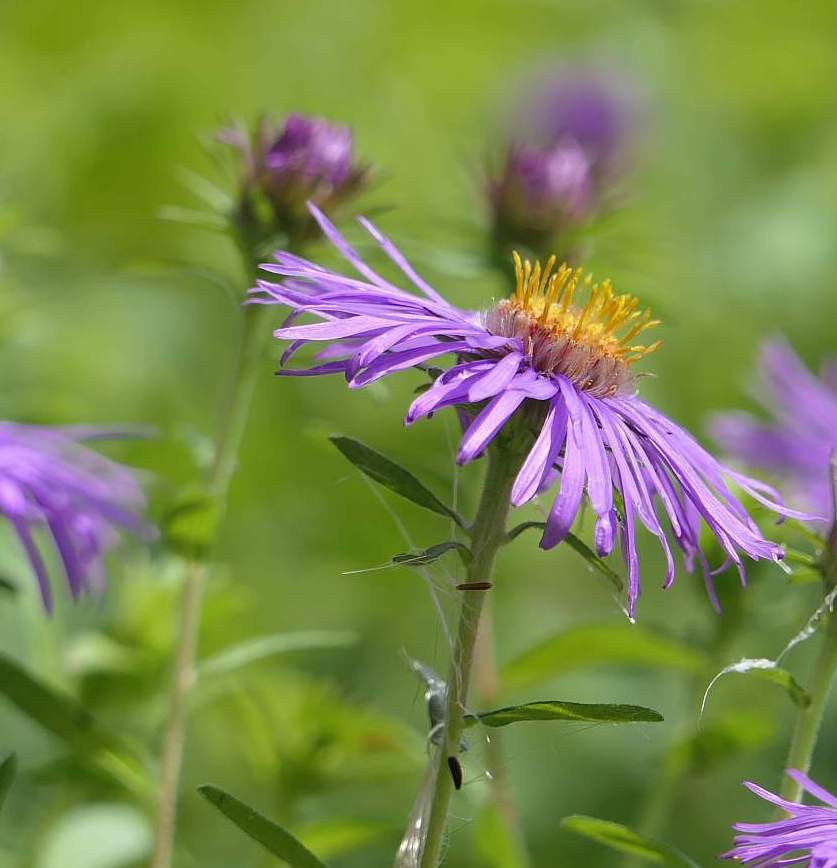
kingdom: Plantae
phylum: Tracheophyta
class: Magnoliopsida
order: Asterales
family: Asteraceae
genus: Symphyotrichum
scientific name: Symphyotrichum novae-angliae
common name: Michaelmas daisy
